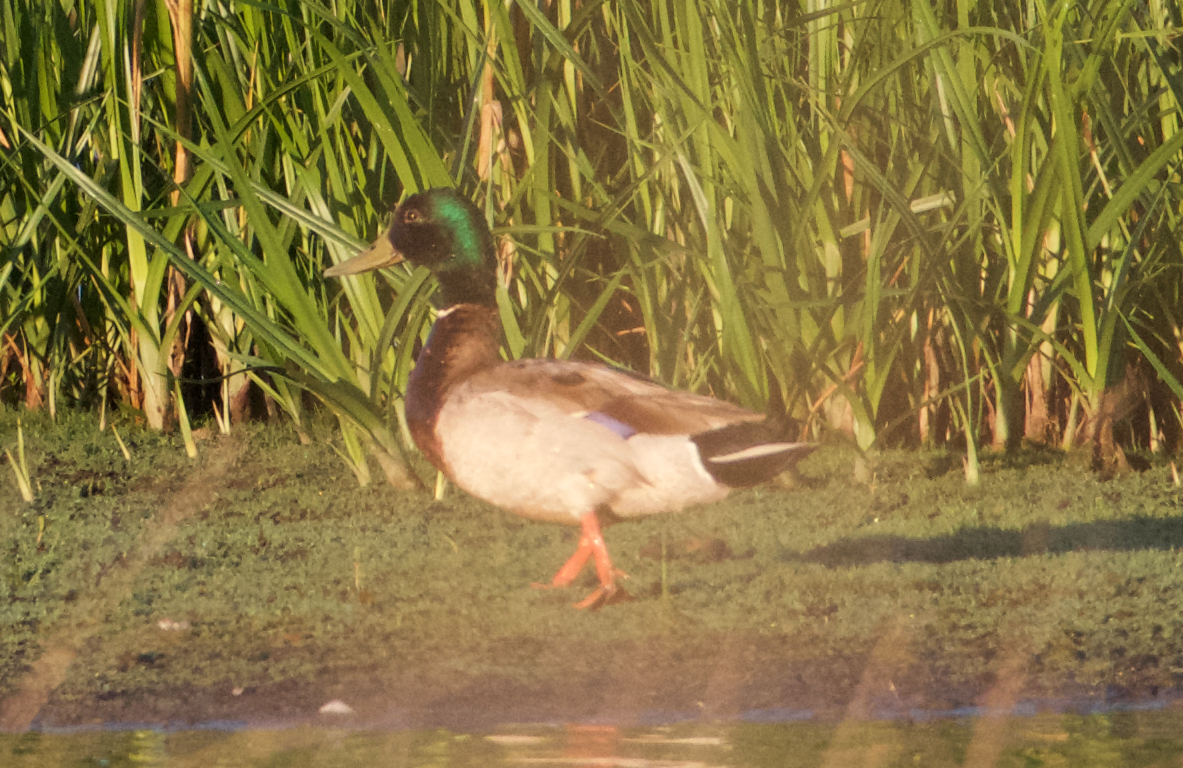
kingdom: Animalia
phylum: Chordata
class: Aves
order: Anseriformes
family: Anatidae
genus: Anas
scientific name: Anas platyrhynchos
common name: Mallard
